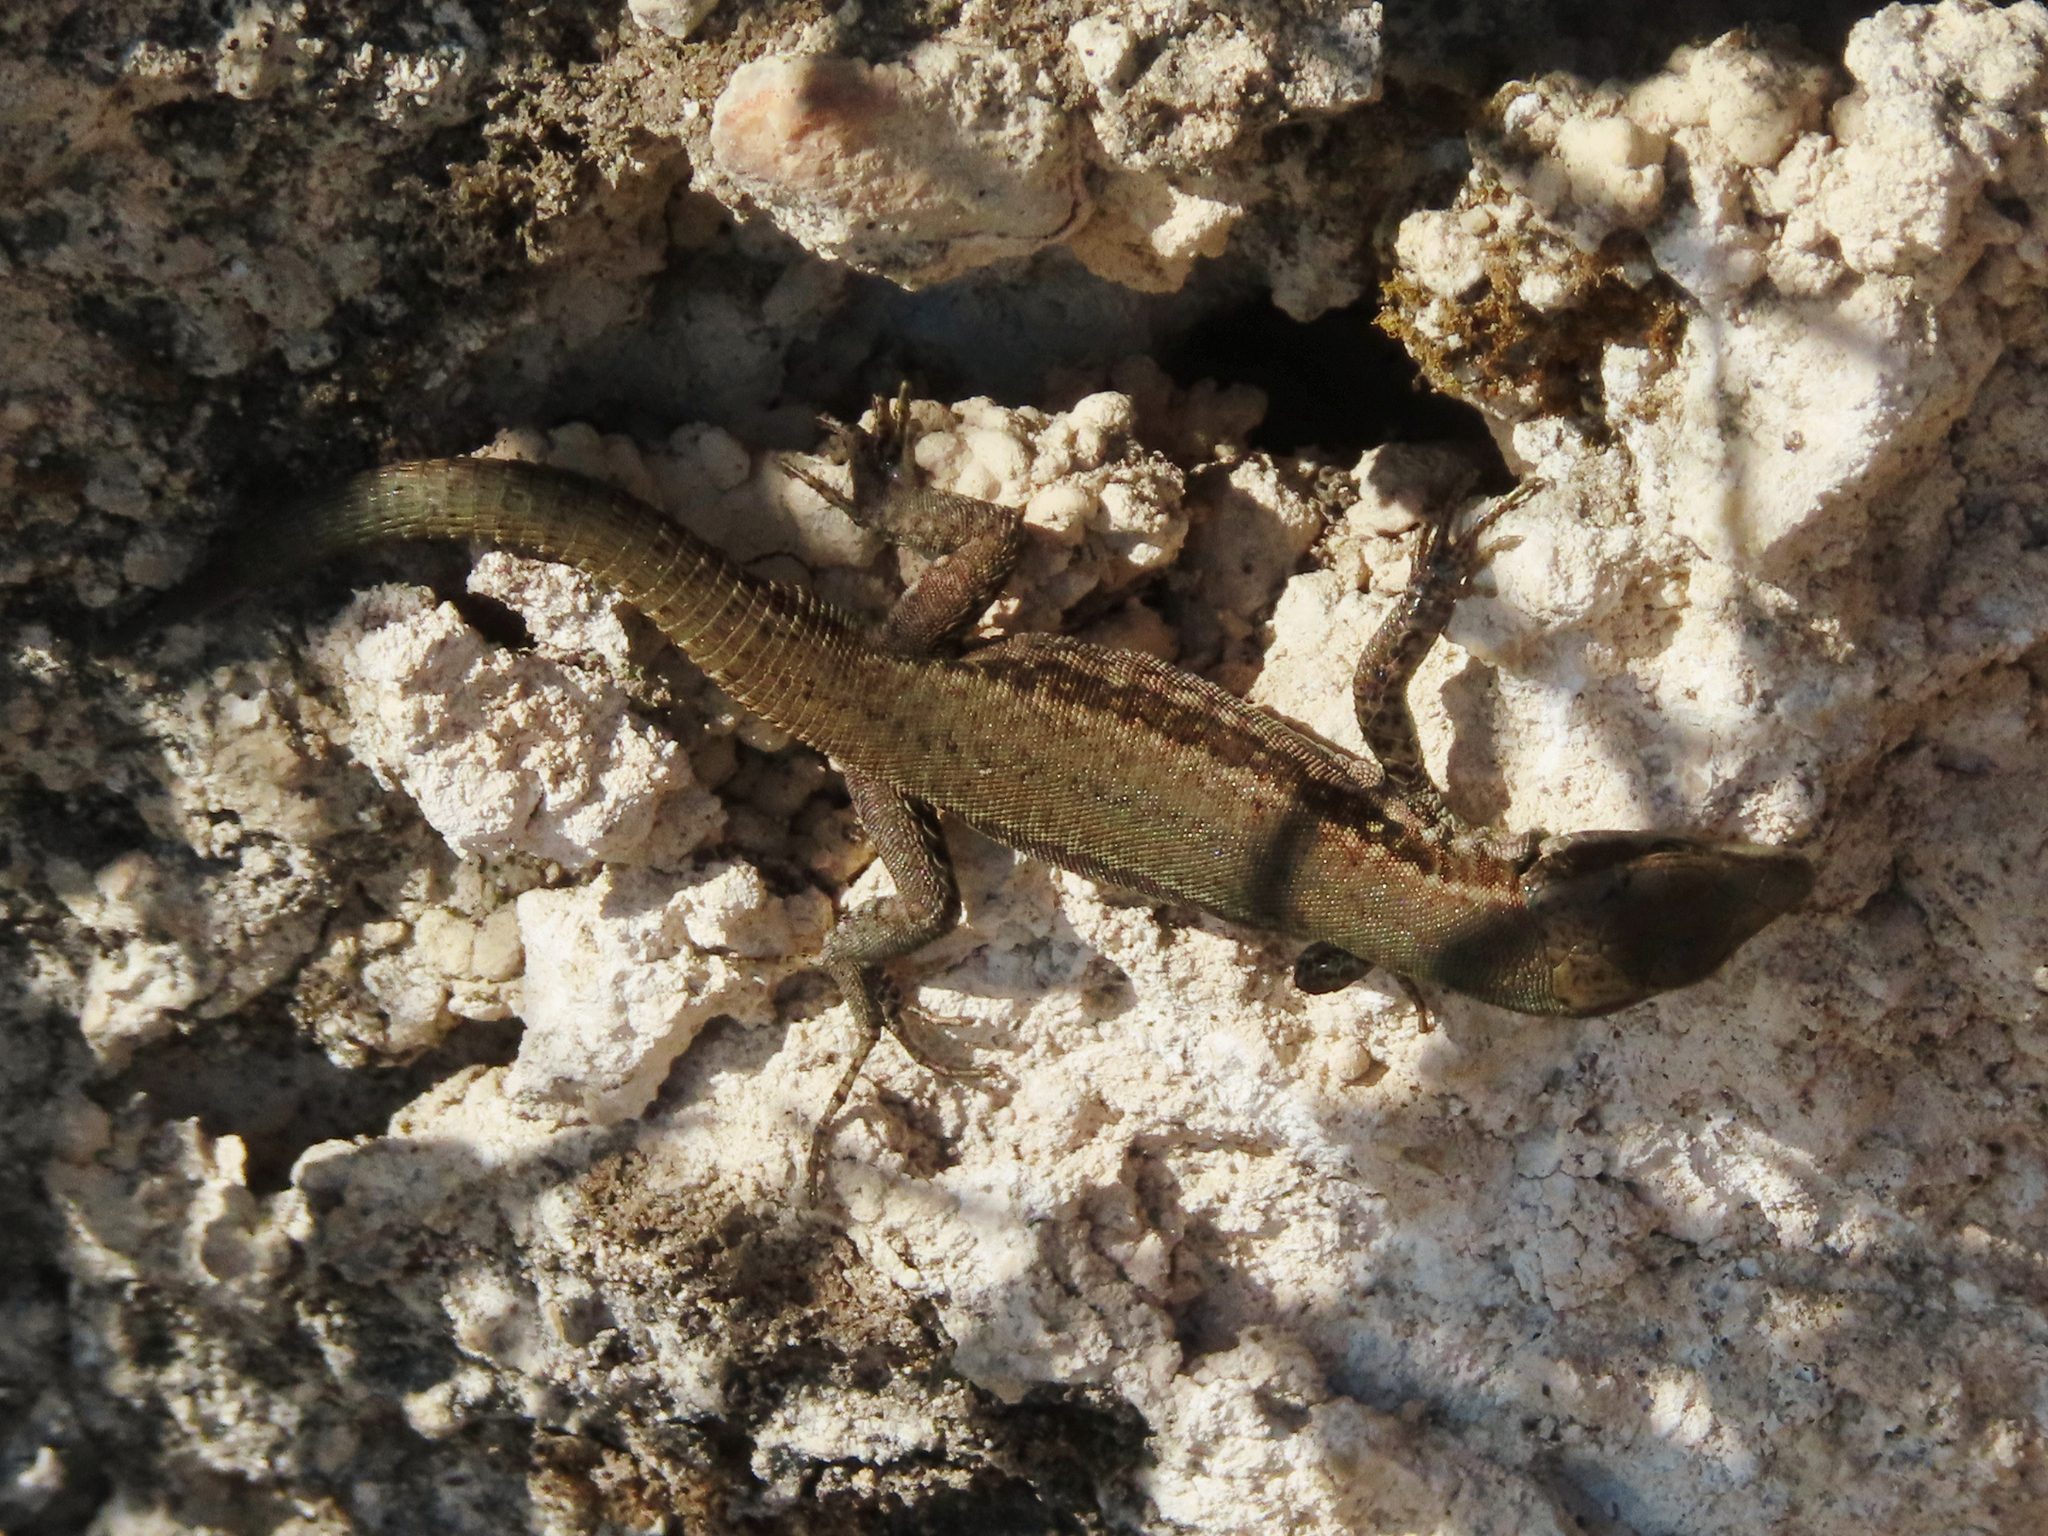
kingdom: Animalia
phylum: Chordata
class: Squamata
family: Lacertidae
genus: Podarcis
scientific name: Podarcis muralis
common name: Common wall lizard
